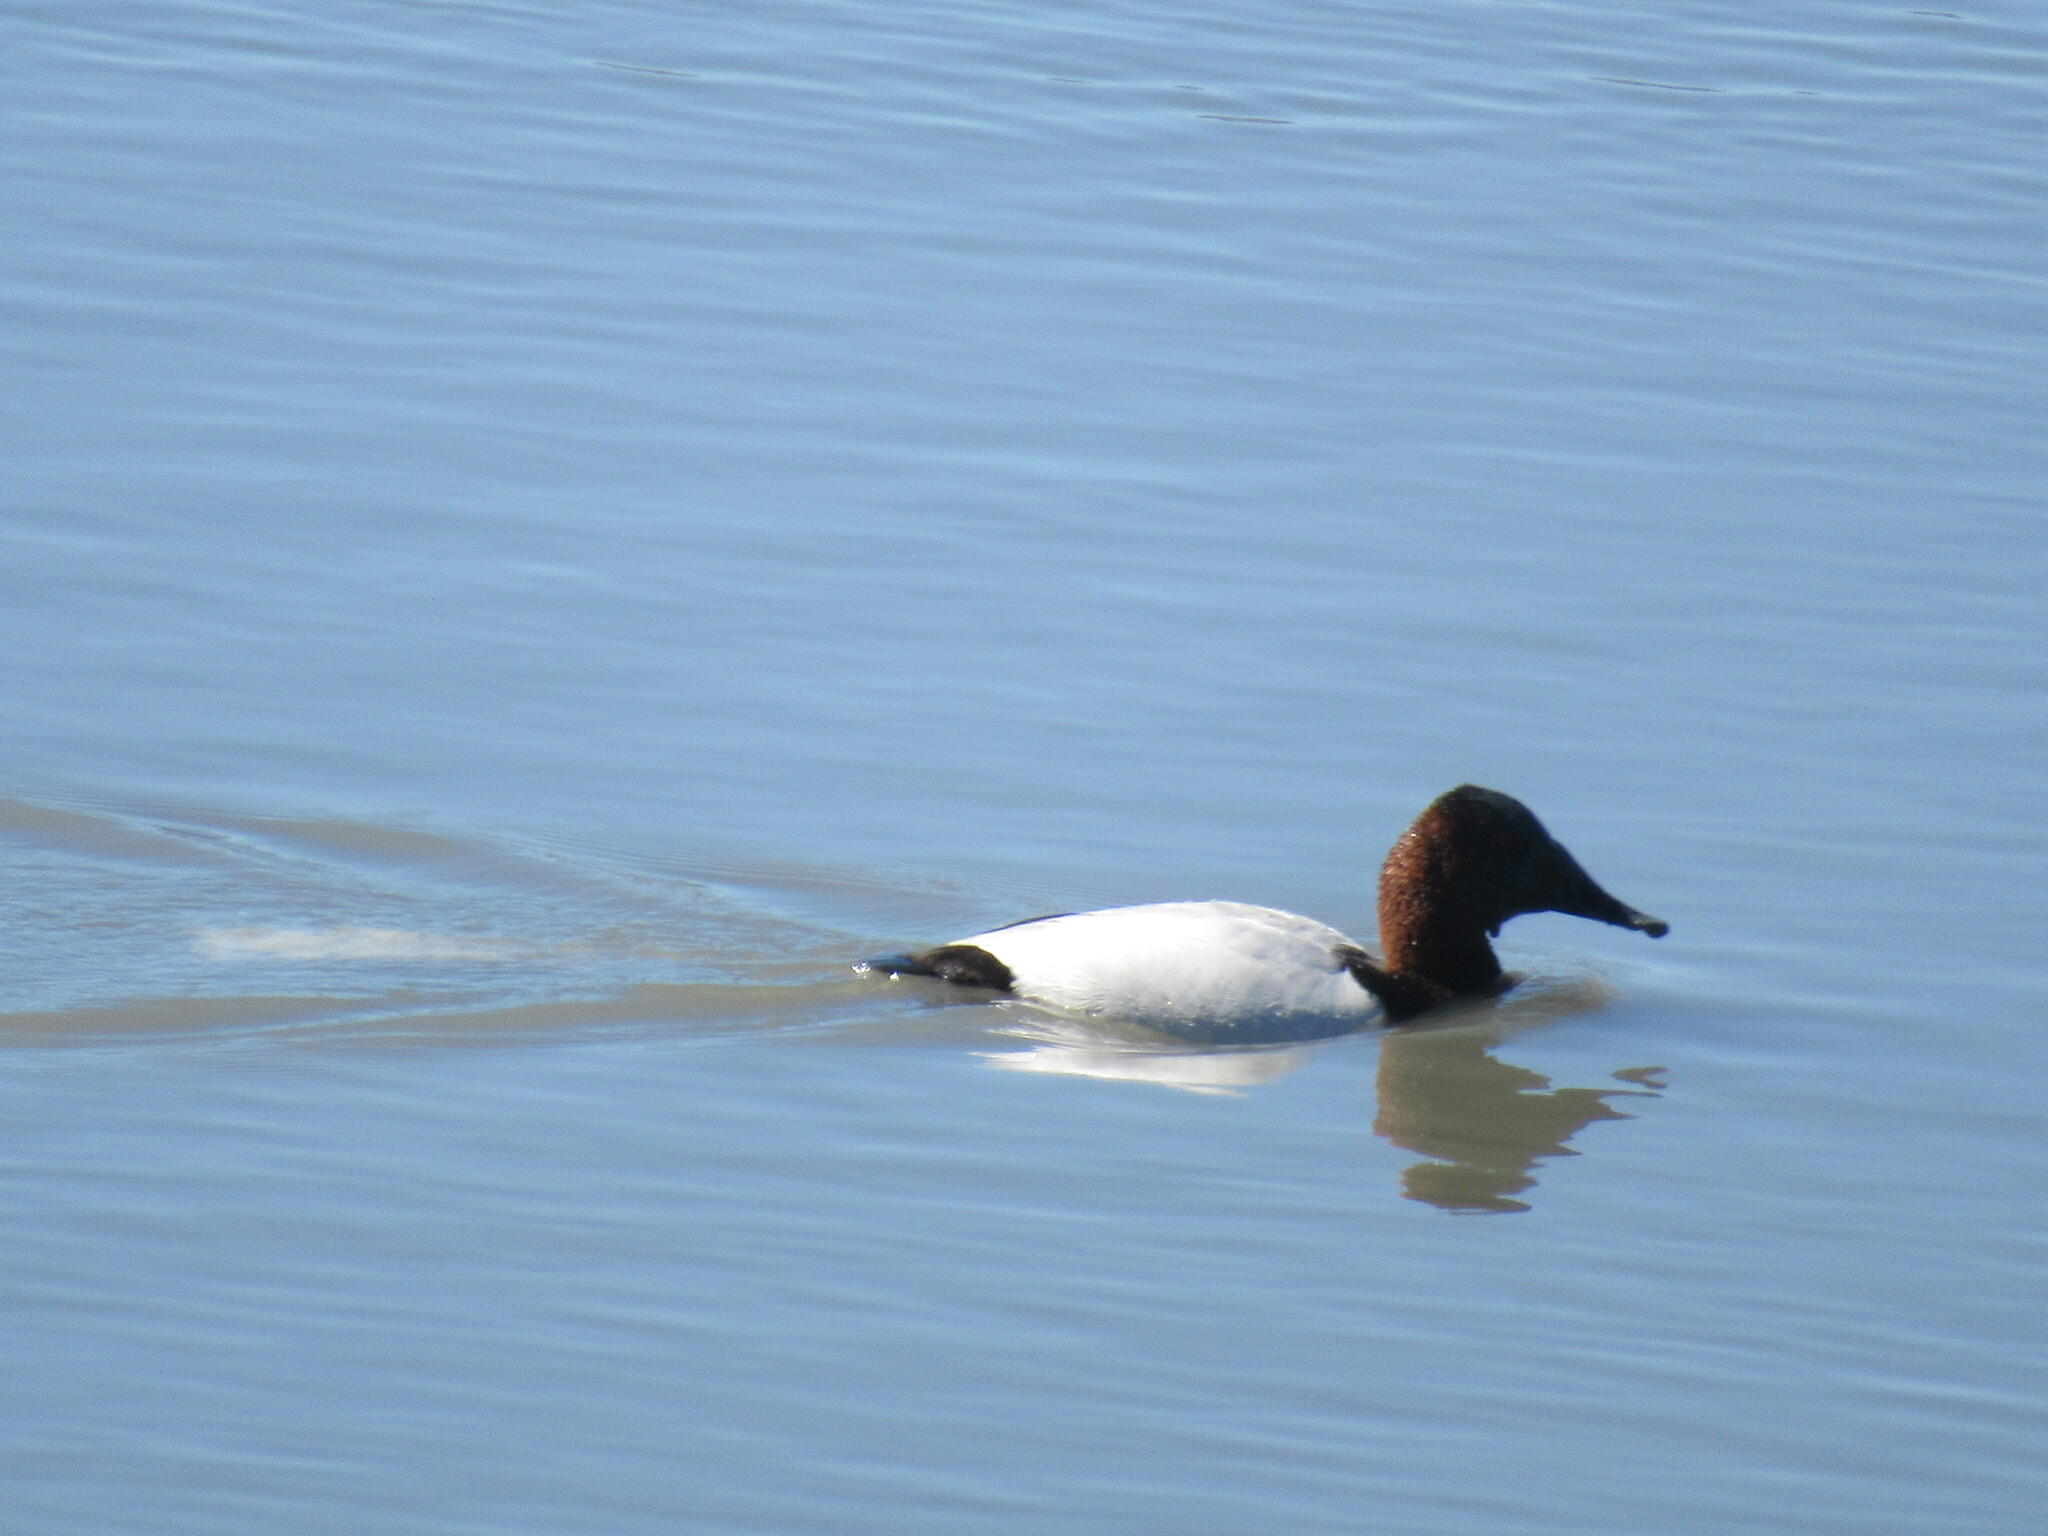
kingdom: Animalia
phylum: Chordata
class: Aves
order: Anseriformes
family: Anatidae
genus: Aythya
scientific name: Aythya valisineria
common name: Canvasback
